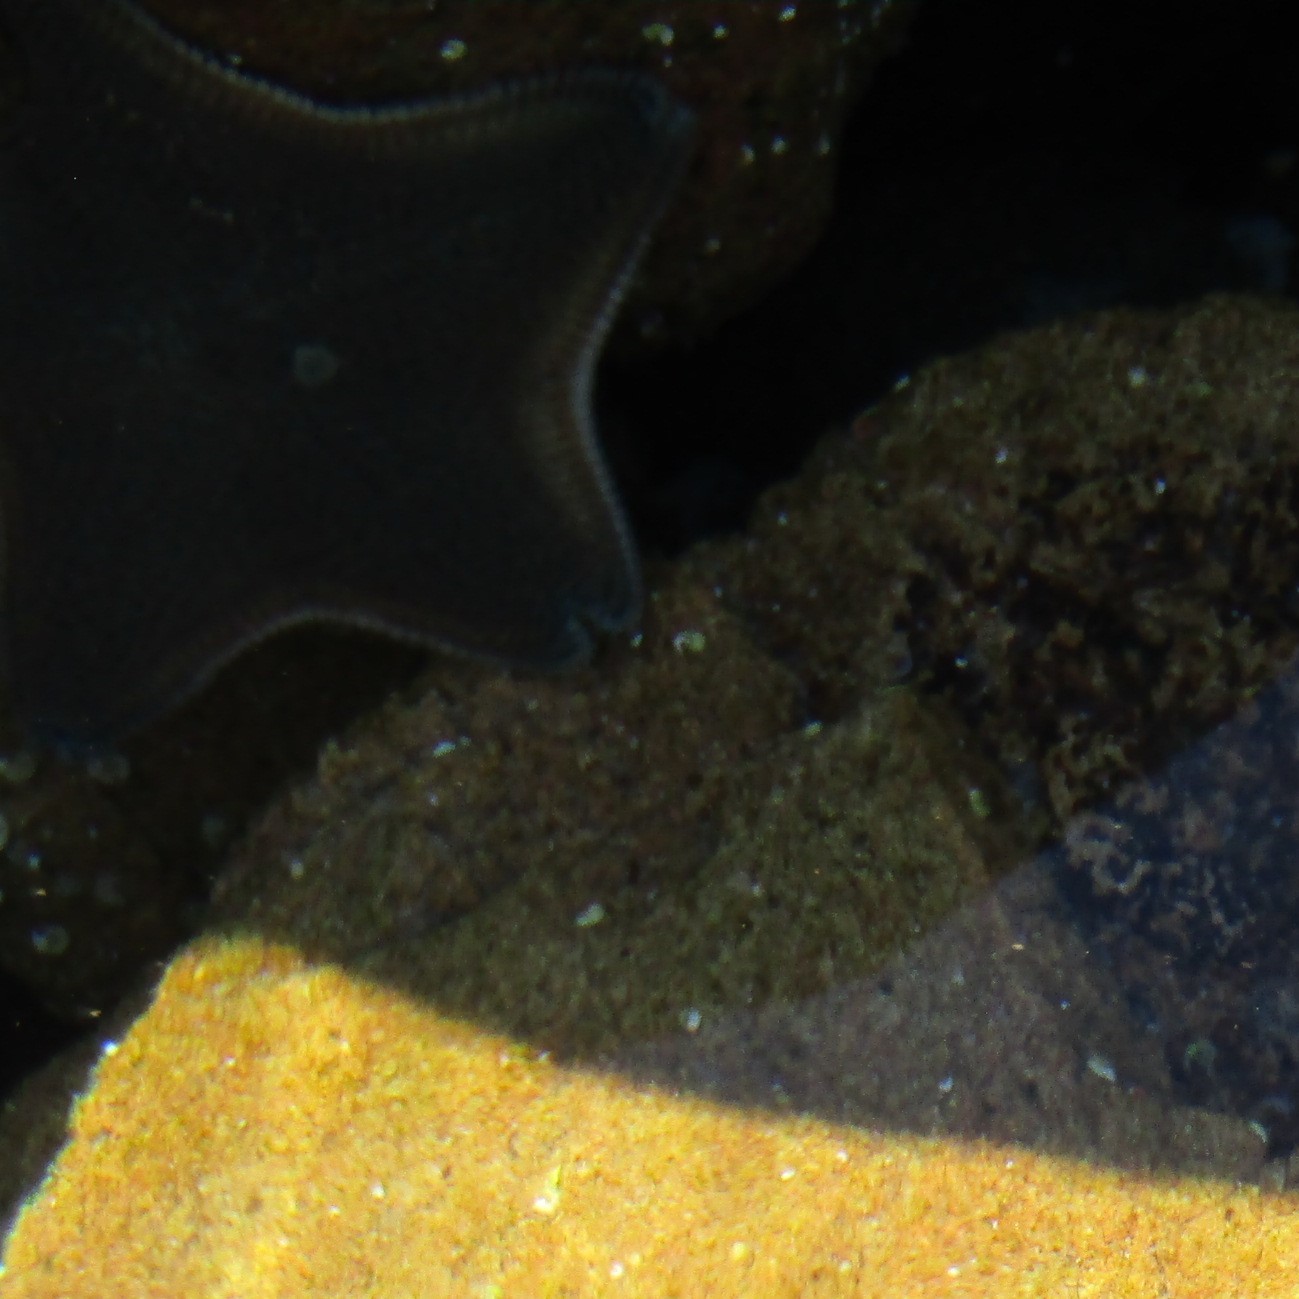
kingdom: Animalia
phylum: Echinodermata
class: Asteroidea
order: Valvatida
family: Asterinidae
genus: Patiriella
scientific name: Patiriella regularis
